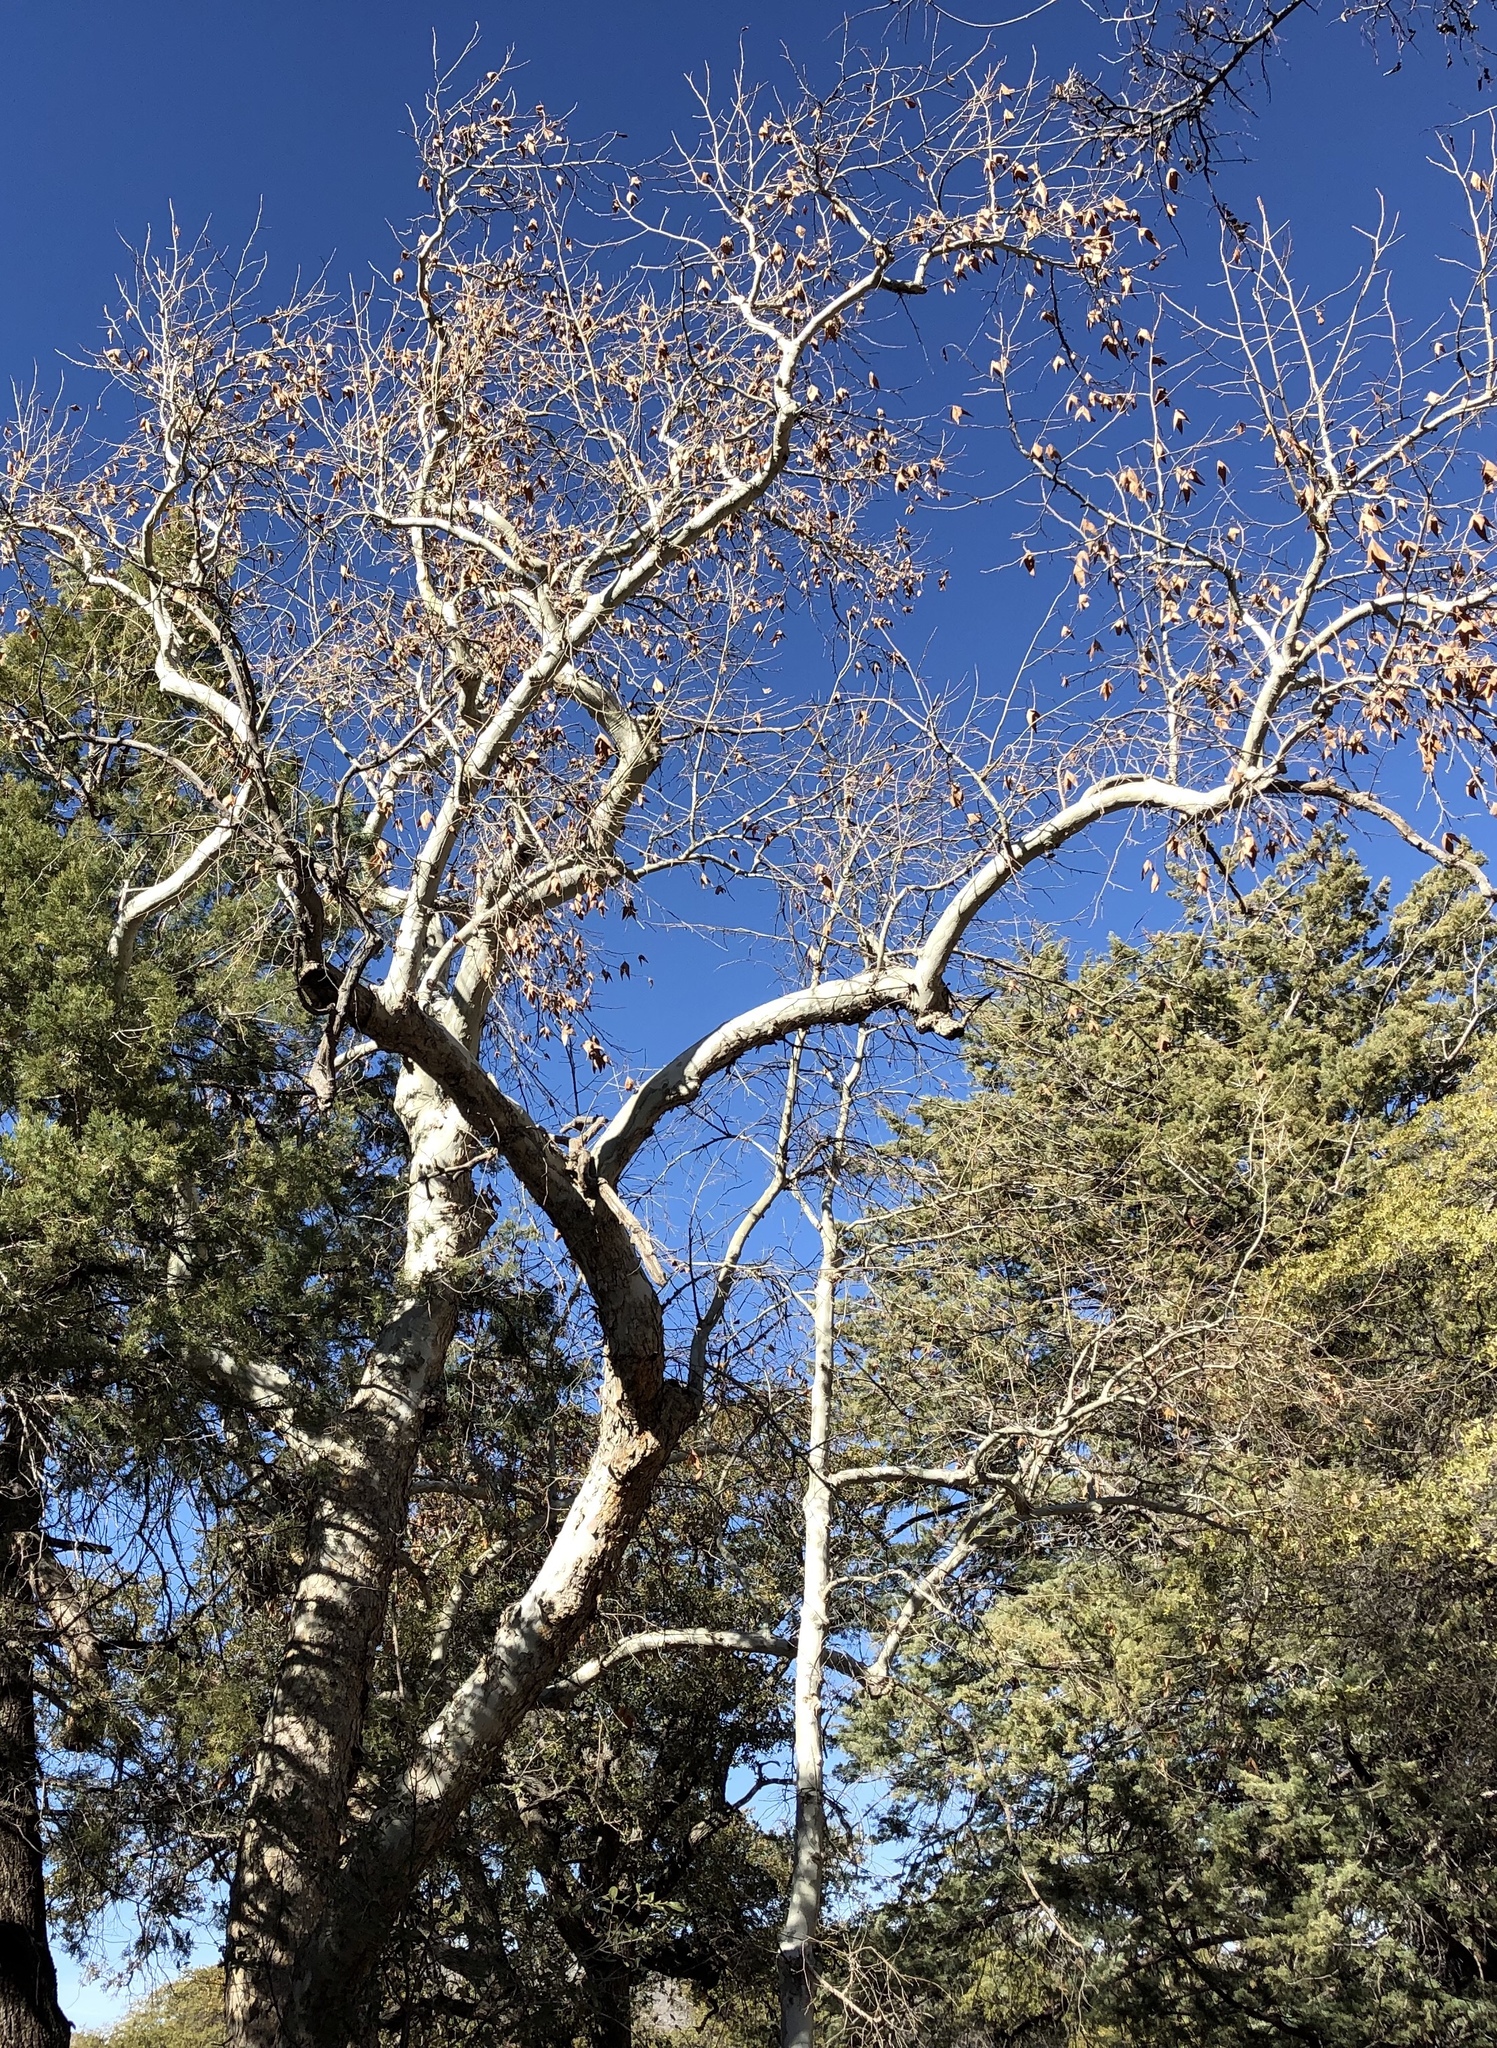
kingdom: Plantae
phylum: Tracheophyta
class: Magnoliopsida
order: Proteales
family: Platanaceae
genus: Platanus
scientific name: Platanus wrightii
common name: Arizona sycamore
